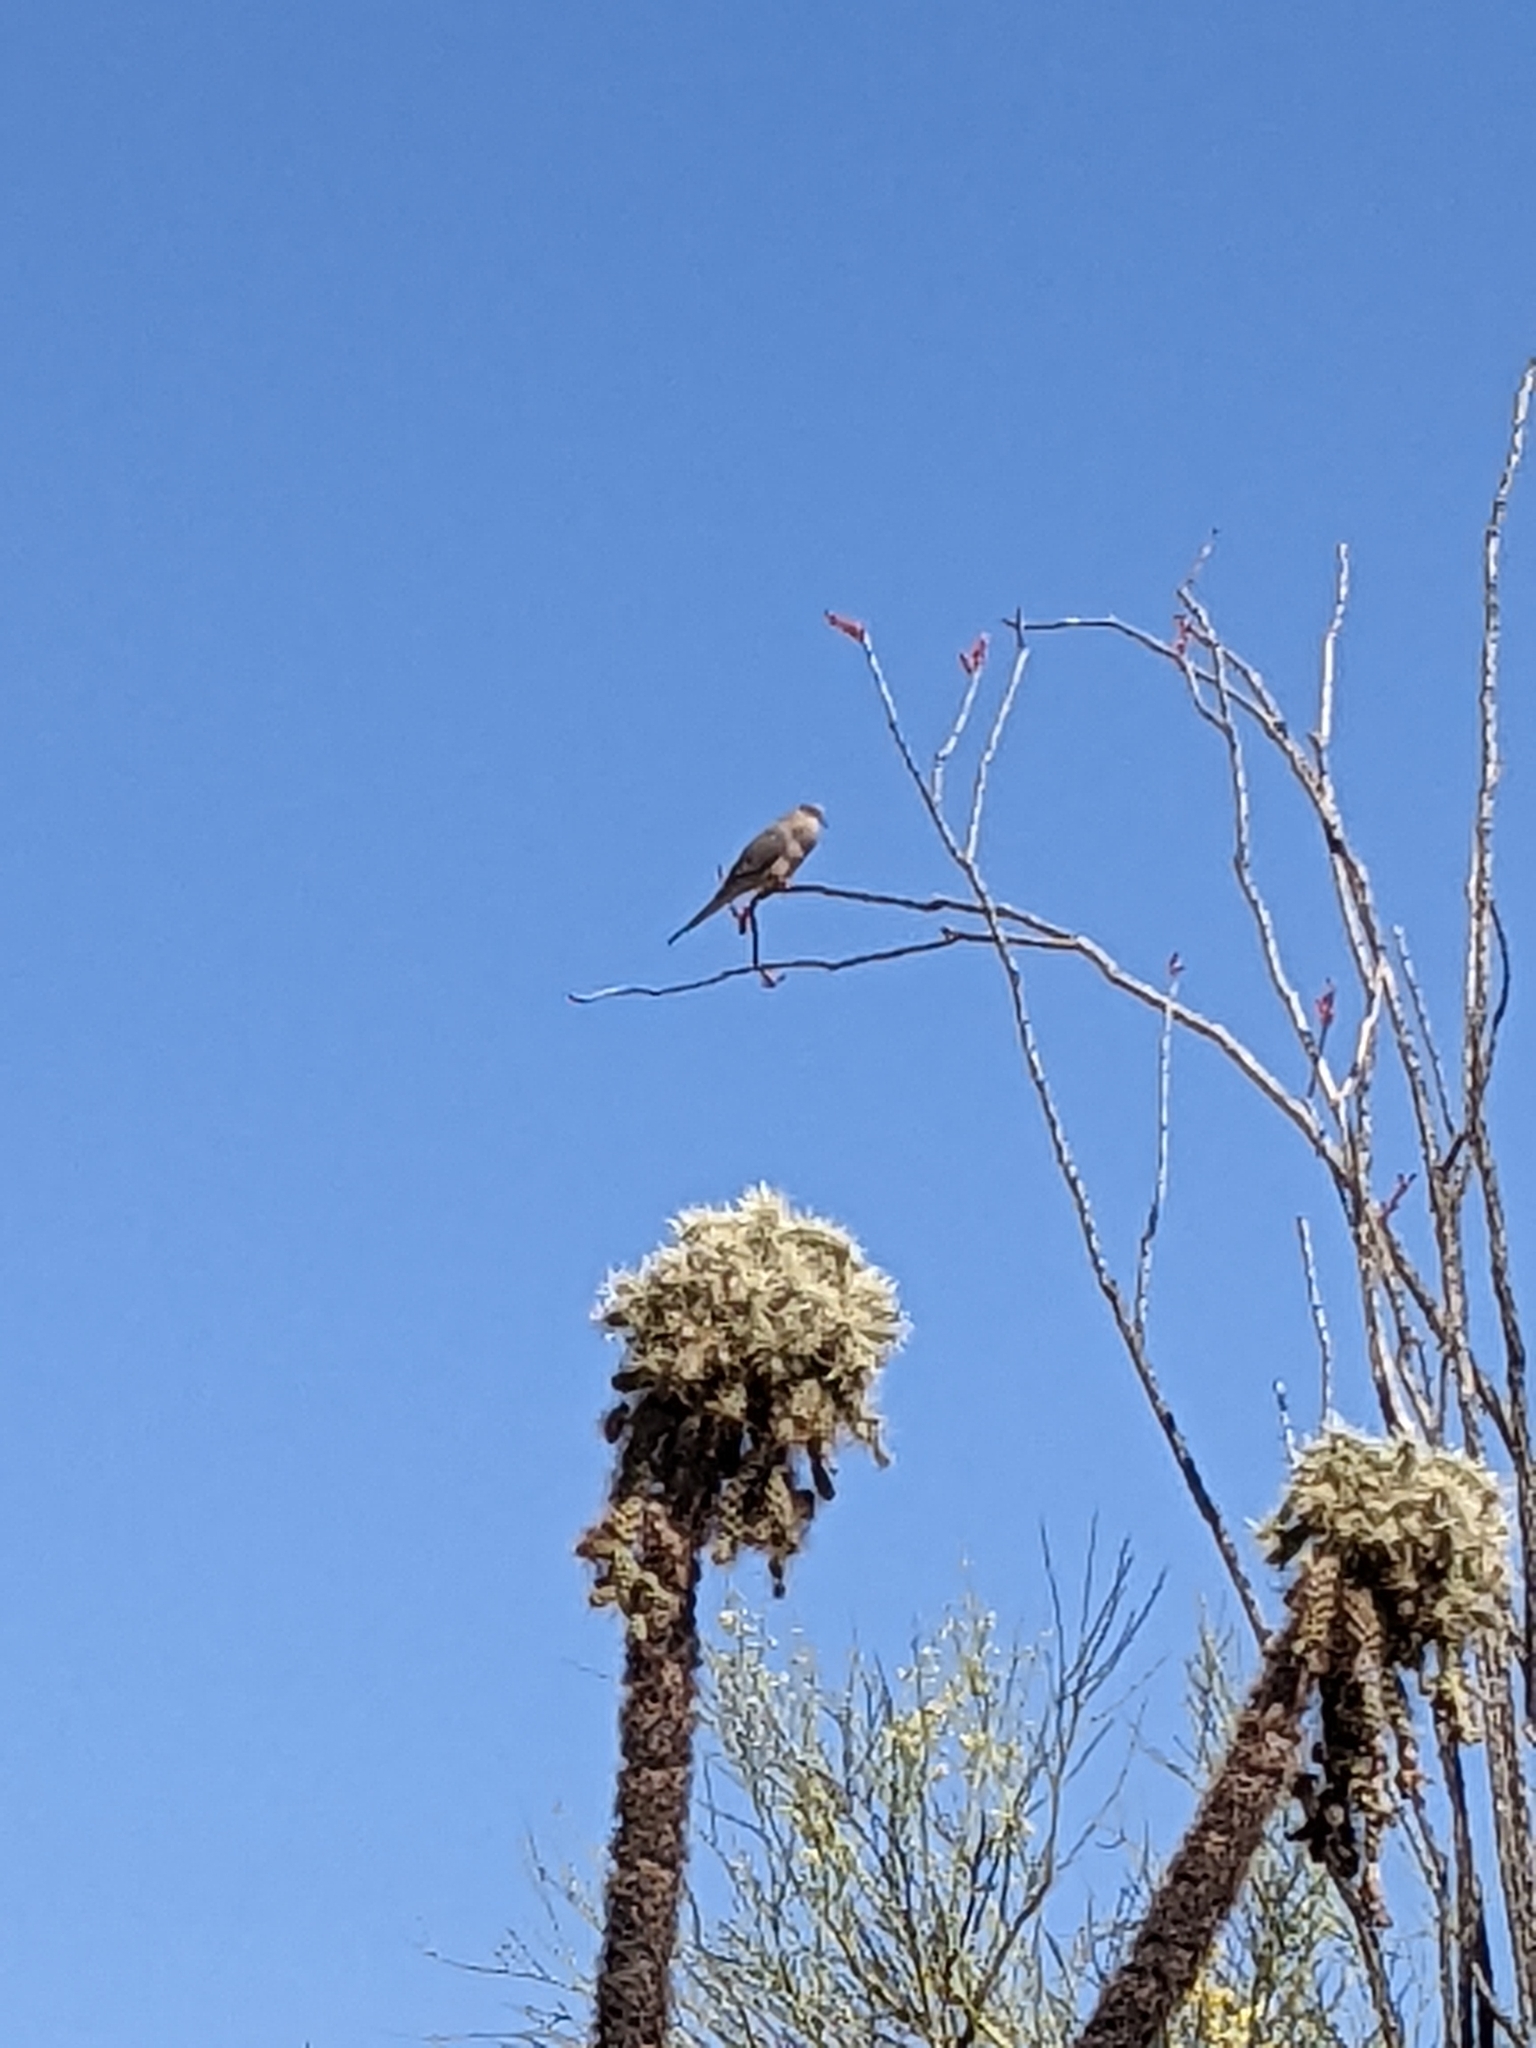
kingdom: Animalia
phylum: Chordata
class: Aves
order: Columbiformes
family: Columbidae
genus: Zenaida
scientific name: Zenaida macroura
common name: Mourning dove
